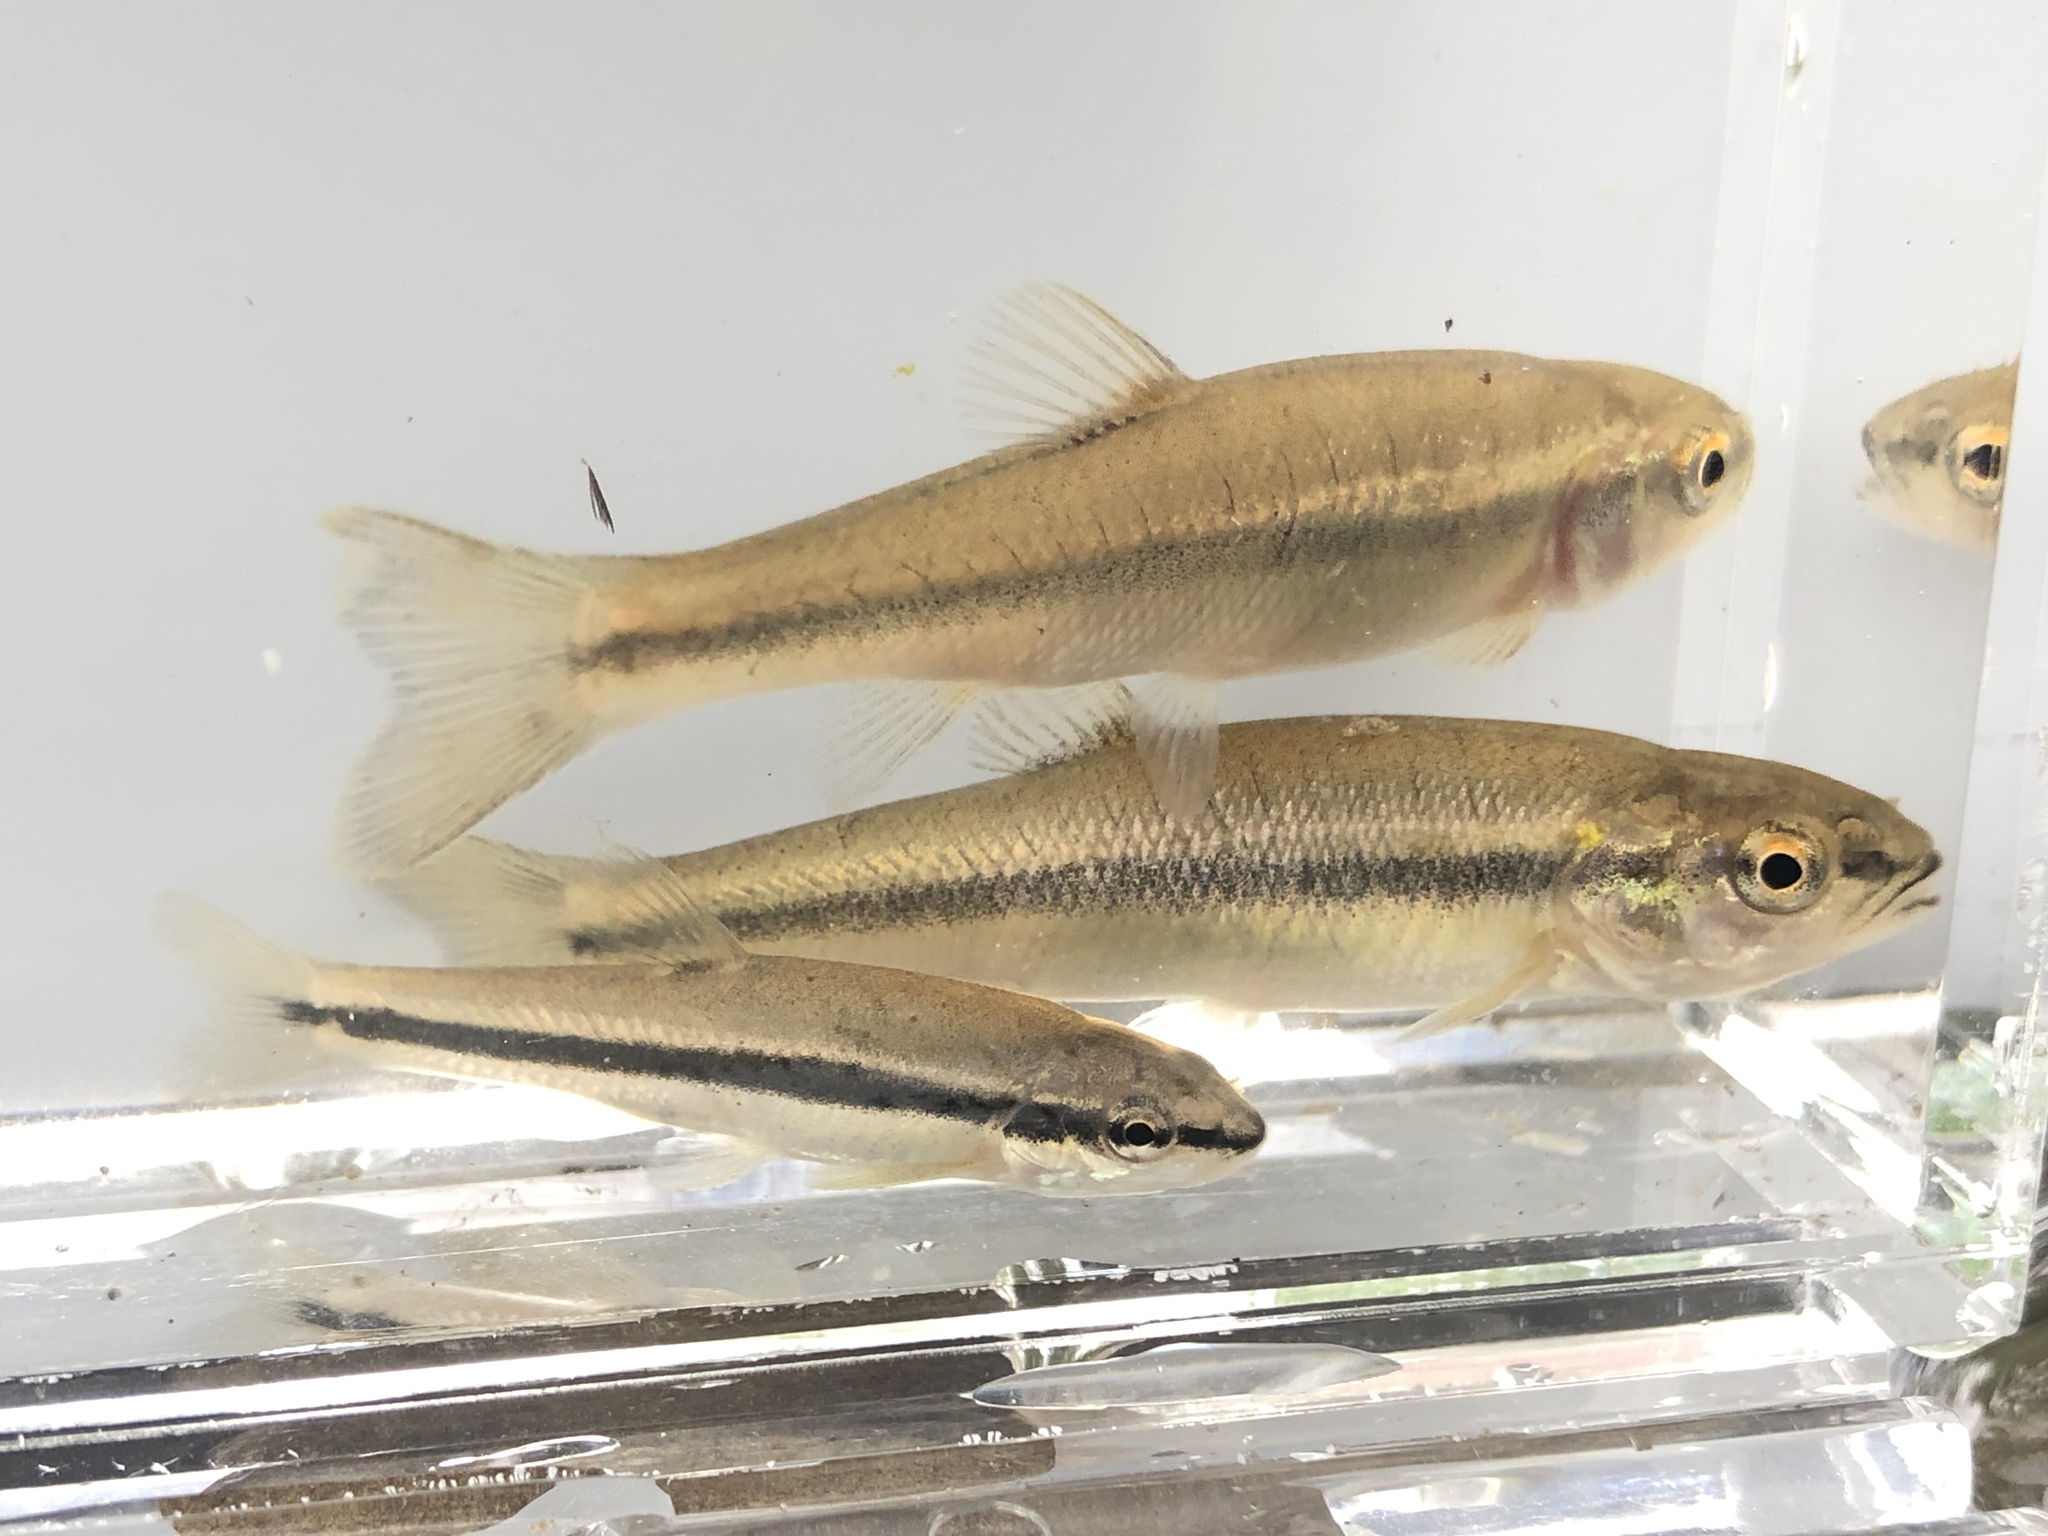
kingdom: Animalia
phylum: Chordata
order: Cypriniformes
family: Cyprinidae
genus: Rhinichthys
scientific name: Rhinichthys atratulus
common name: Eastern blacknose dace
